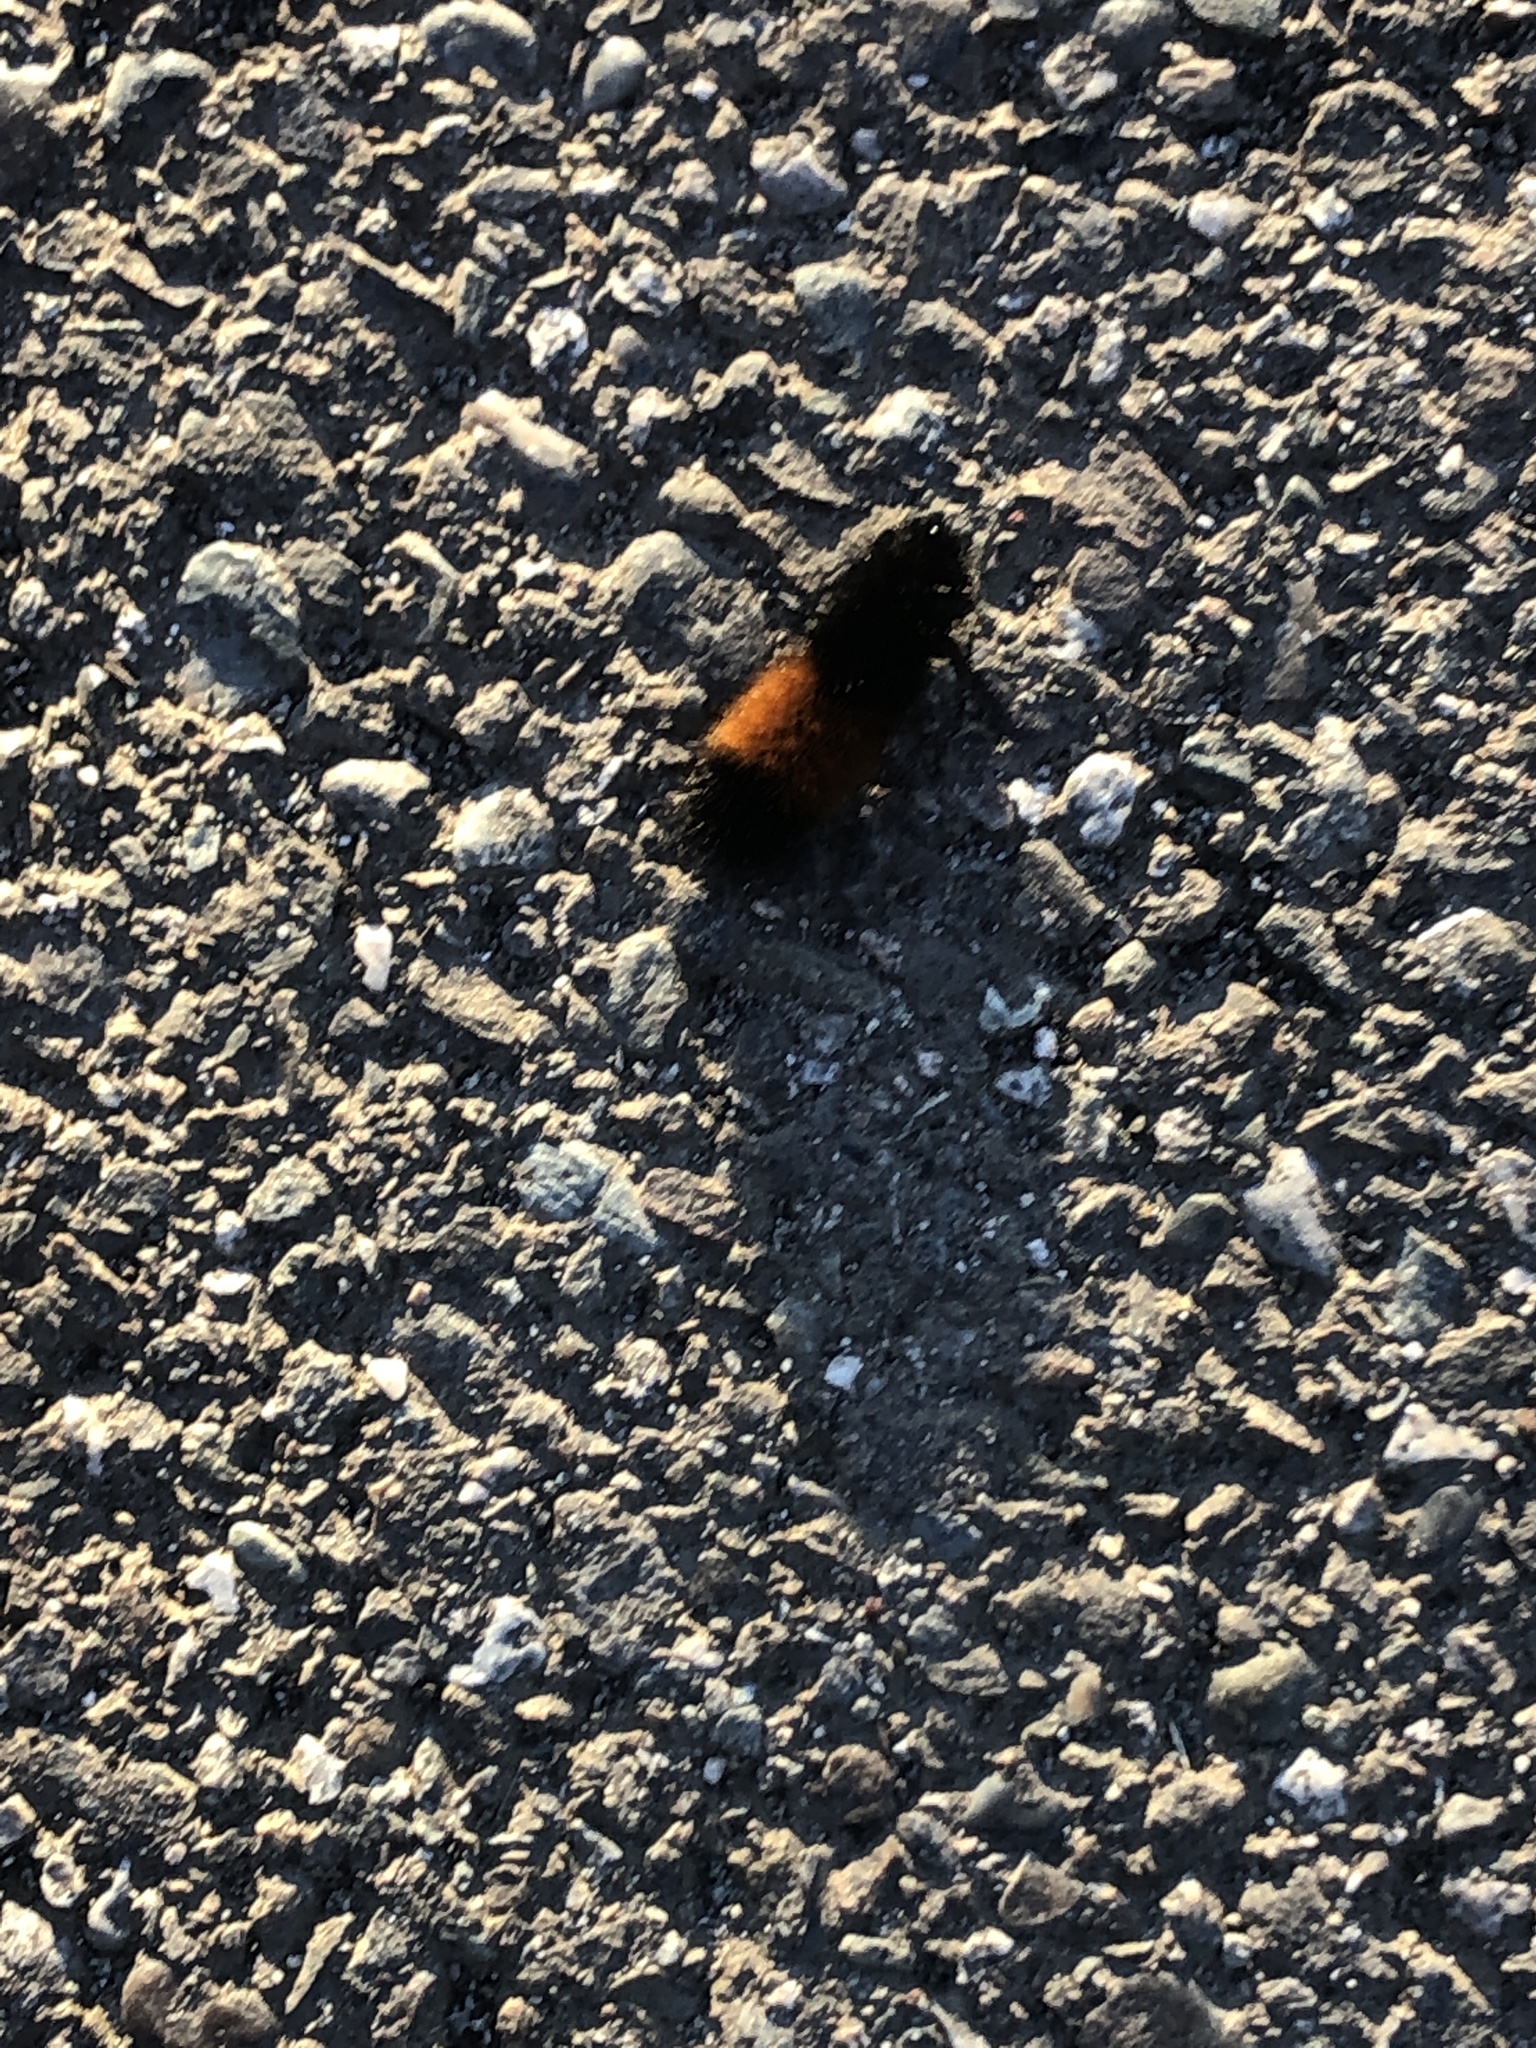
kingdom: Animalia
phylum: Arthropoda
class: Insecta
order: Lepidoptera
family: Erebidae
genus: Pyrrharctia
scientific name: Pyrrharctia isabella
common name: Isabella tiger moth
